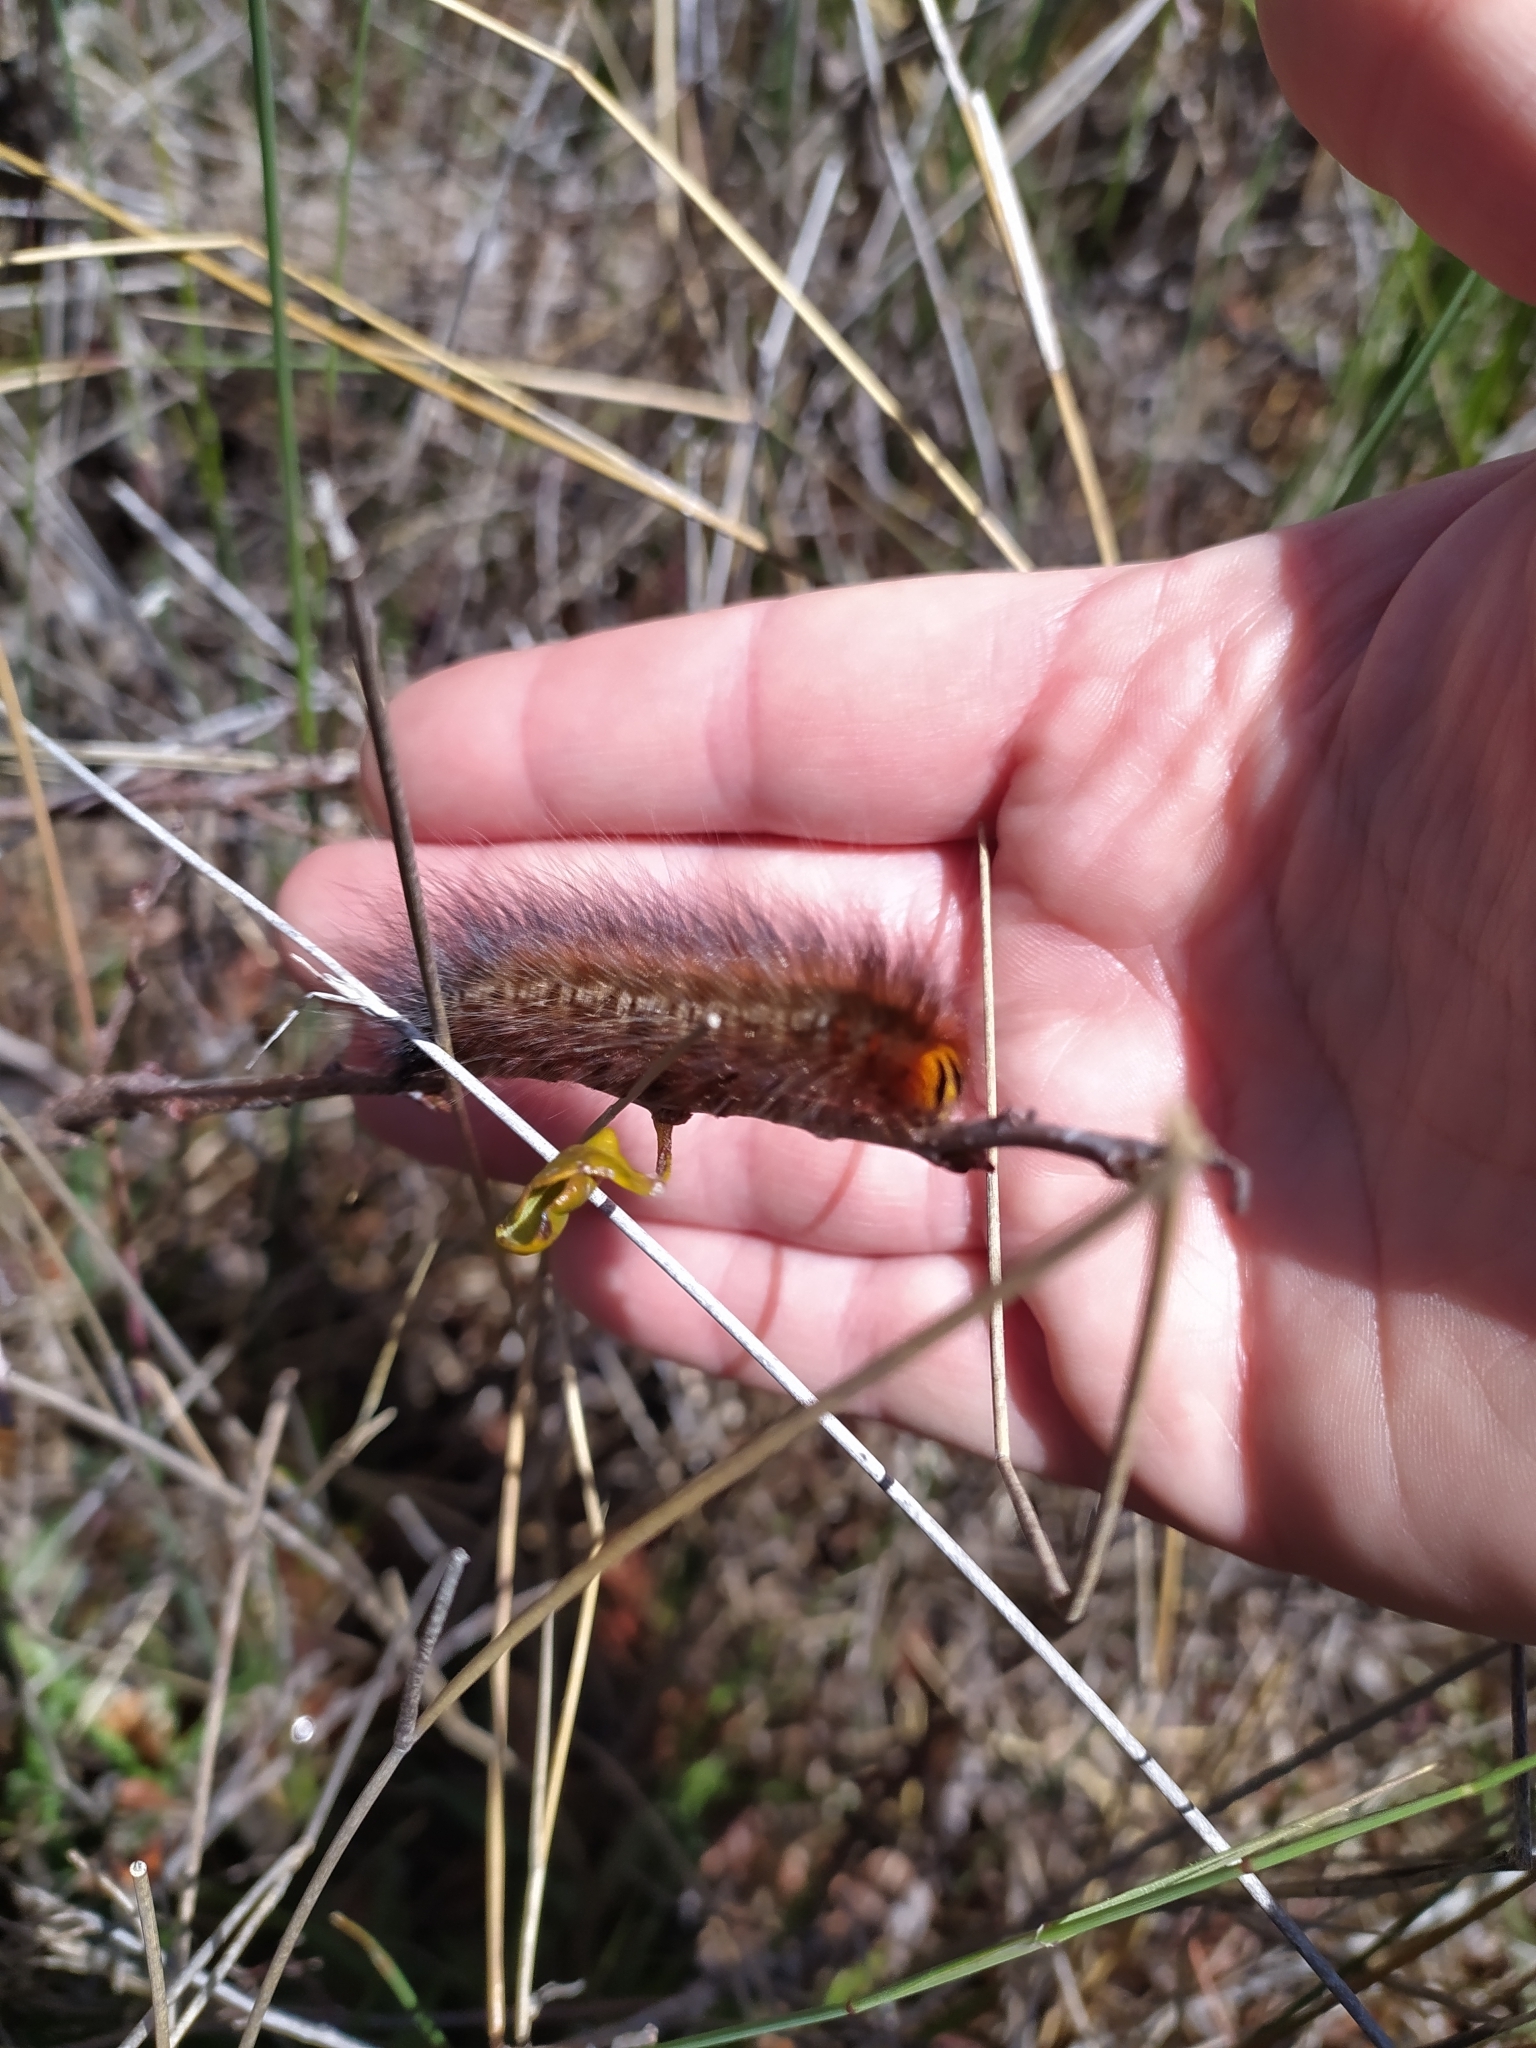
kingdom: Animalia
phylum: Arthropoda
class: Insecta
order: Lepidoptera
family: Lasiocampidae
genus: Mesocelis
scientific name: Mesocelis monticola
